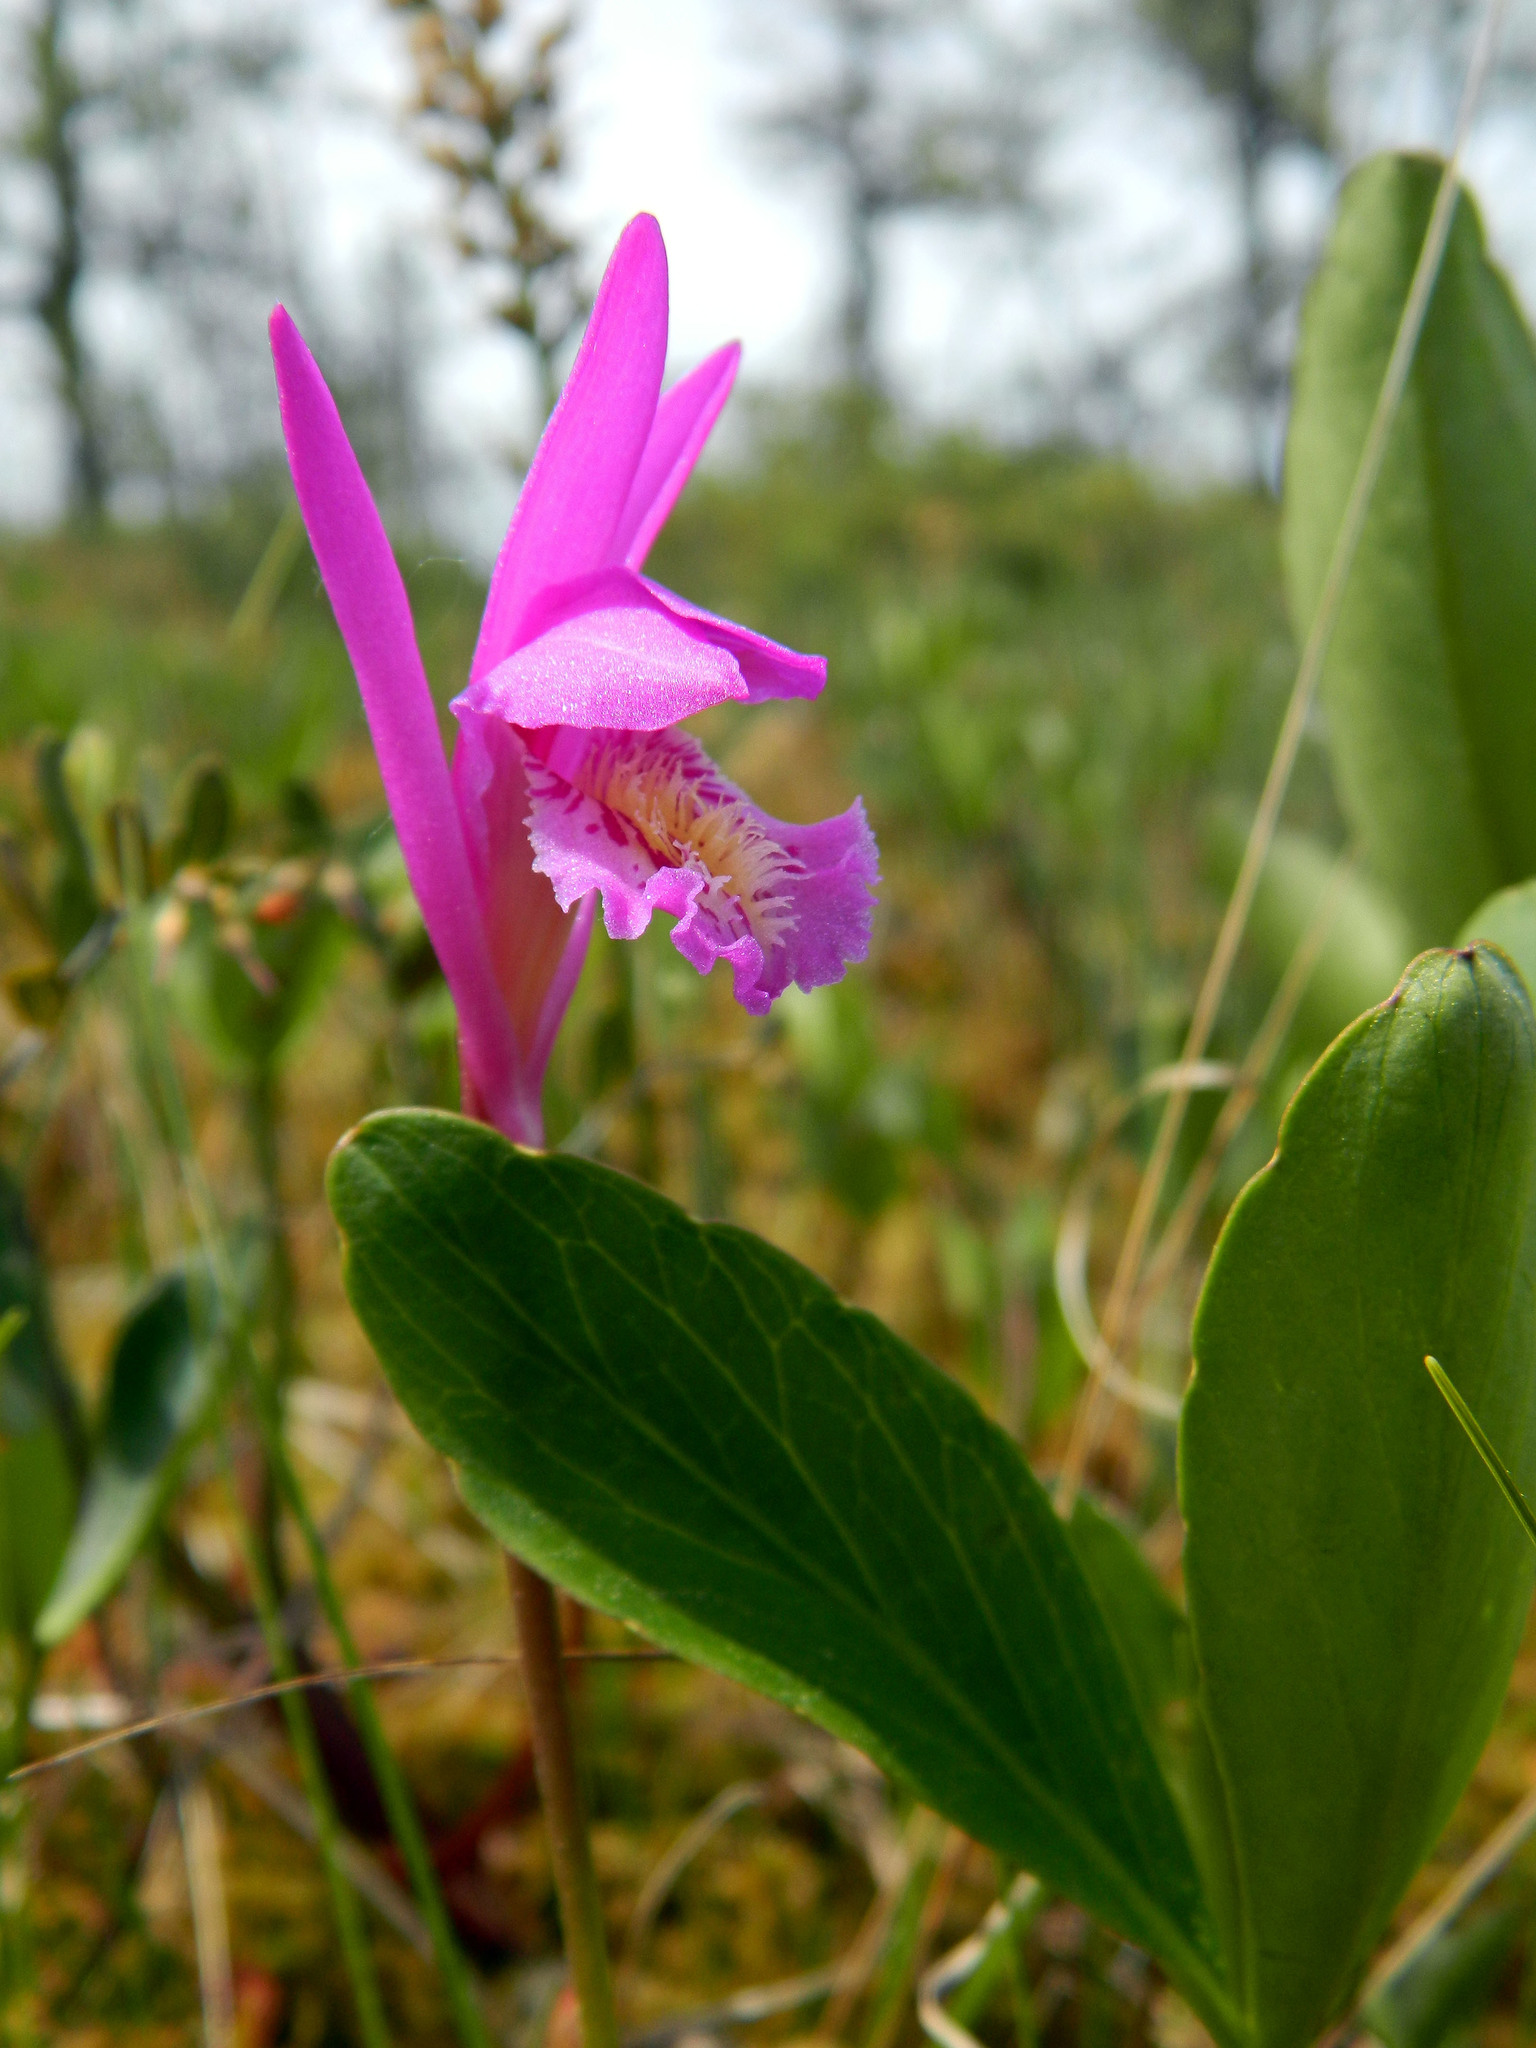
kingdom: Plantae
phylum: Tracheophyta
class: Liliopsida
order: Asparagales
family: Orchidaceae
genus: Arethusa
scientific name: Arethusa bulbosa
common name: Arethusa
